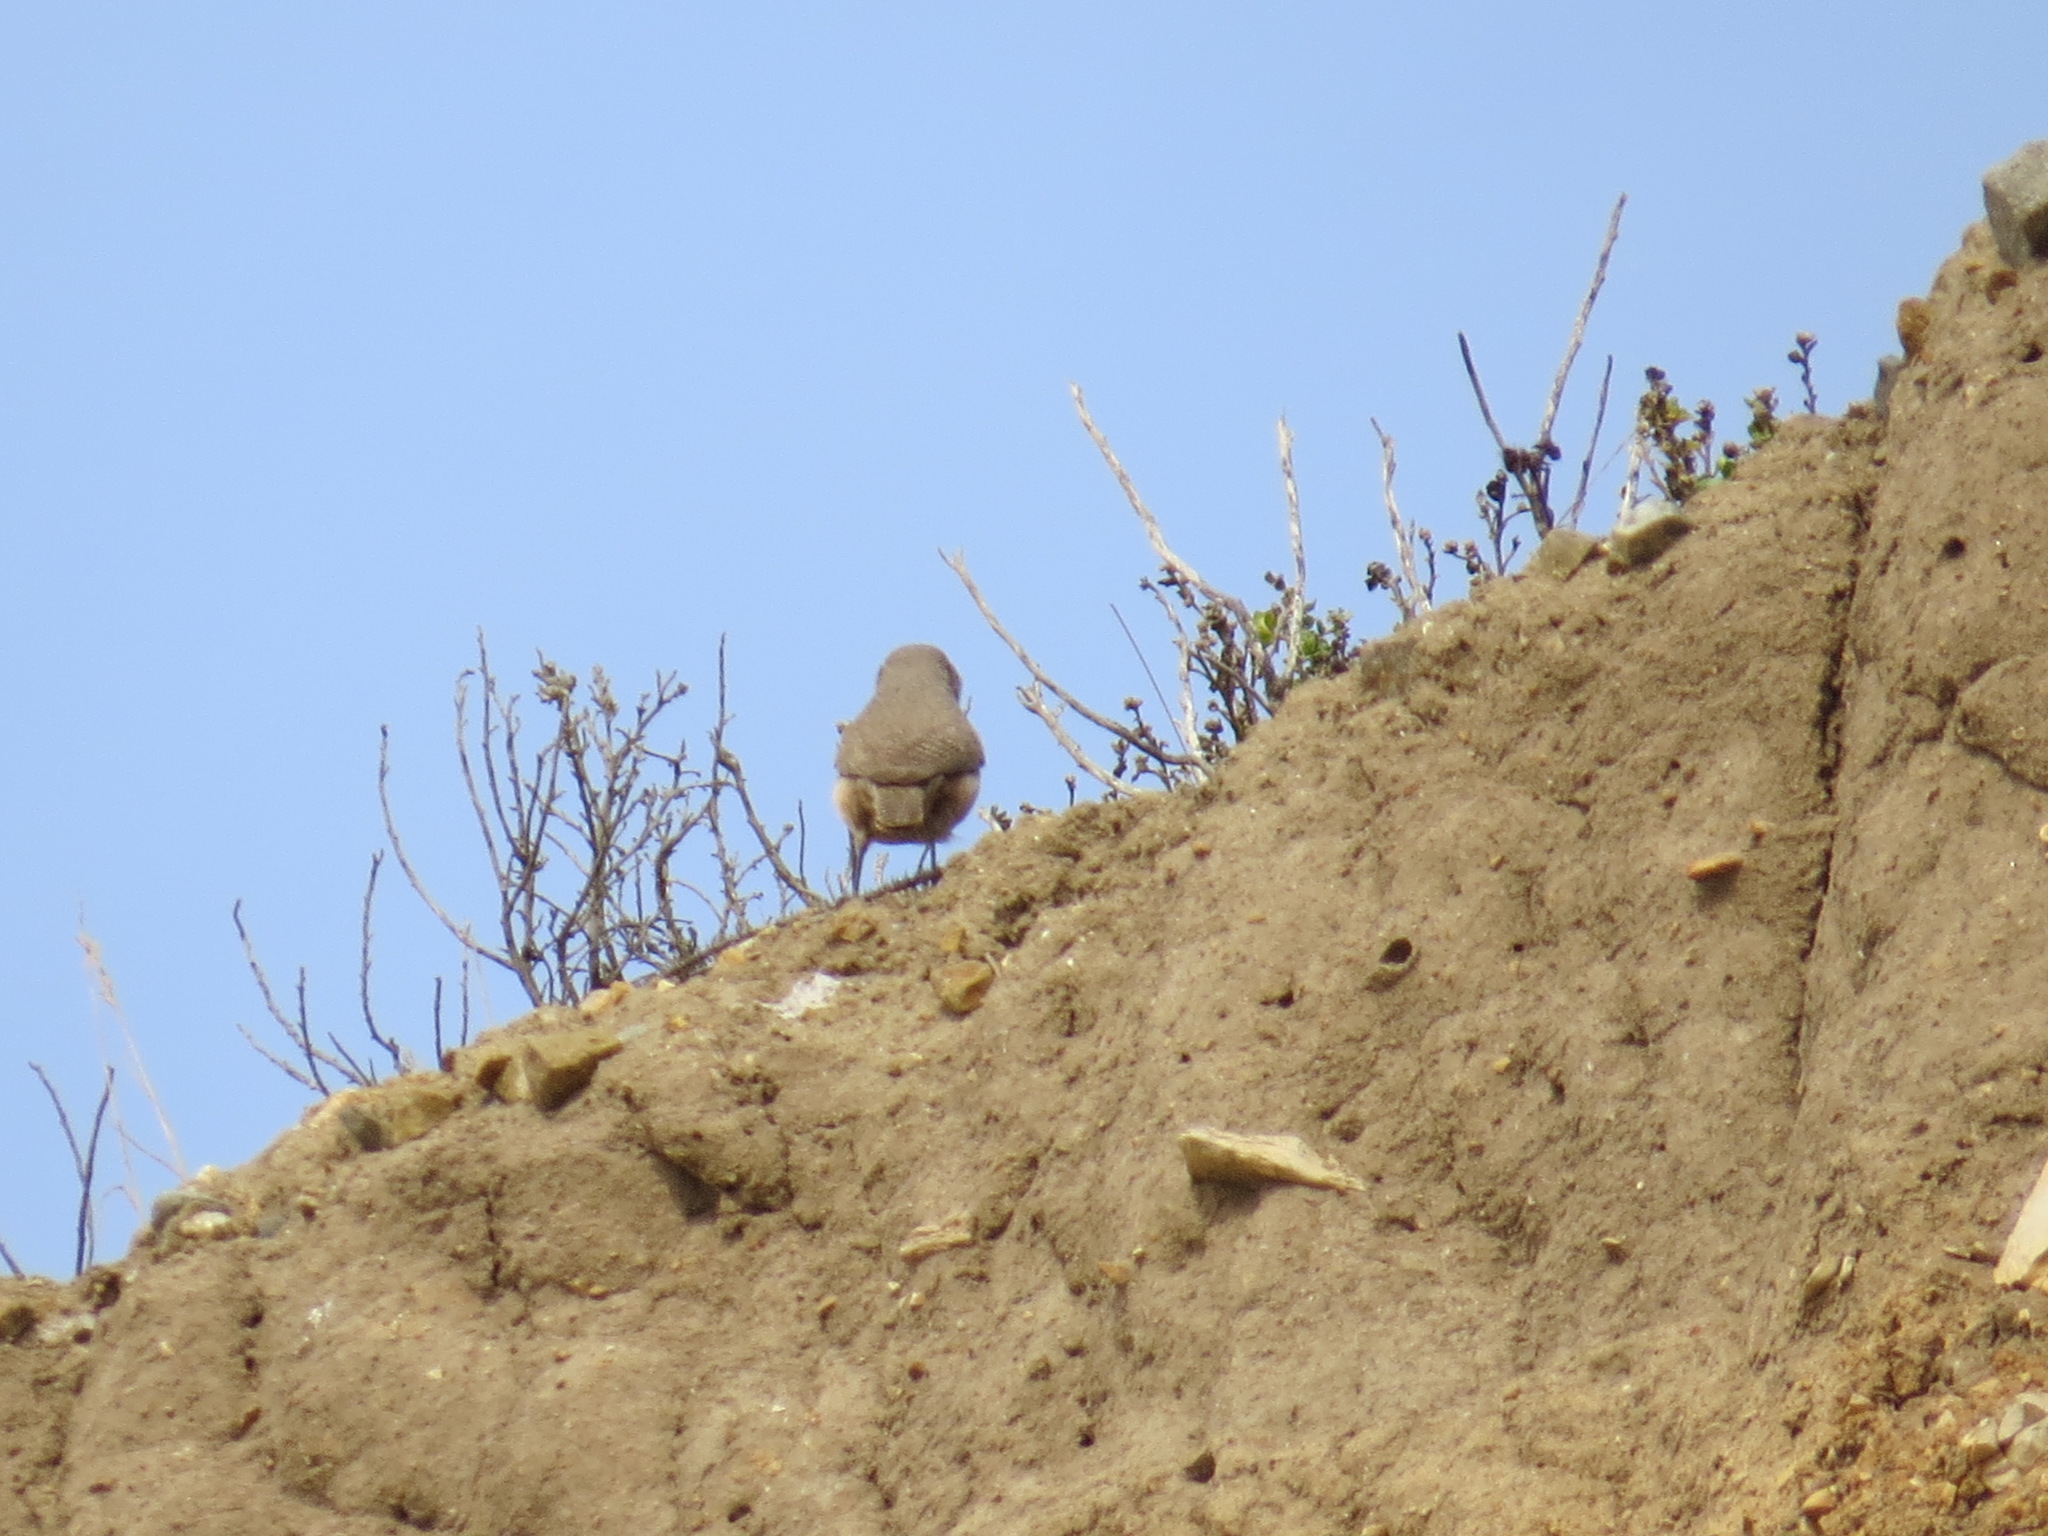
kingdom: Animalia
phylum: Chordata
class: Aves
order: Passeriformes
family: Troglodytidae
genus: Salpinctes
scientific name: Salpinctes obsoletus
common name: Rock wren
